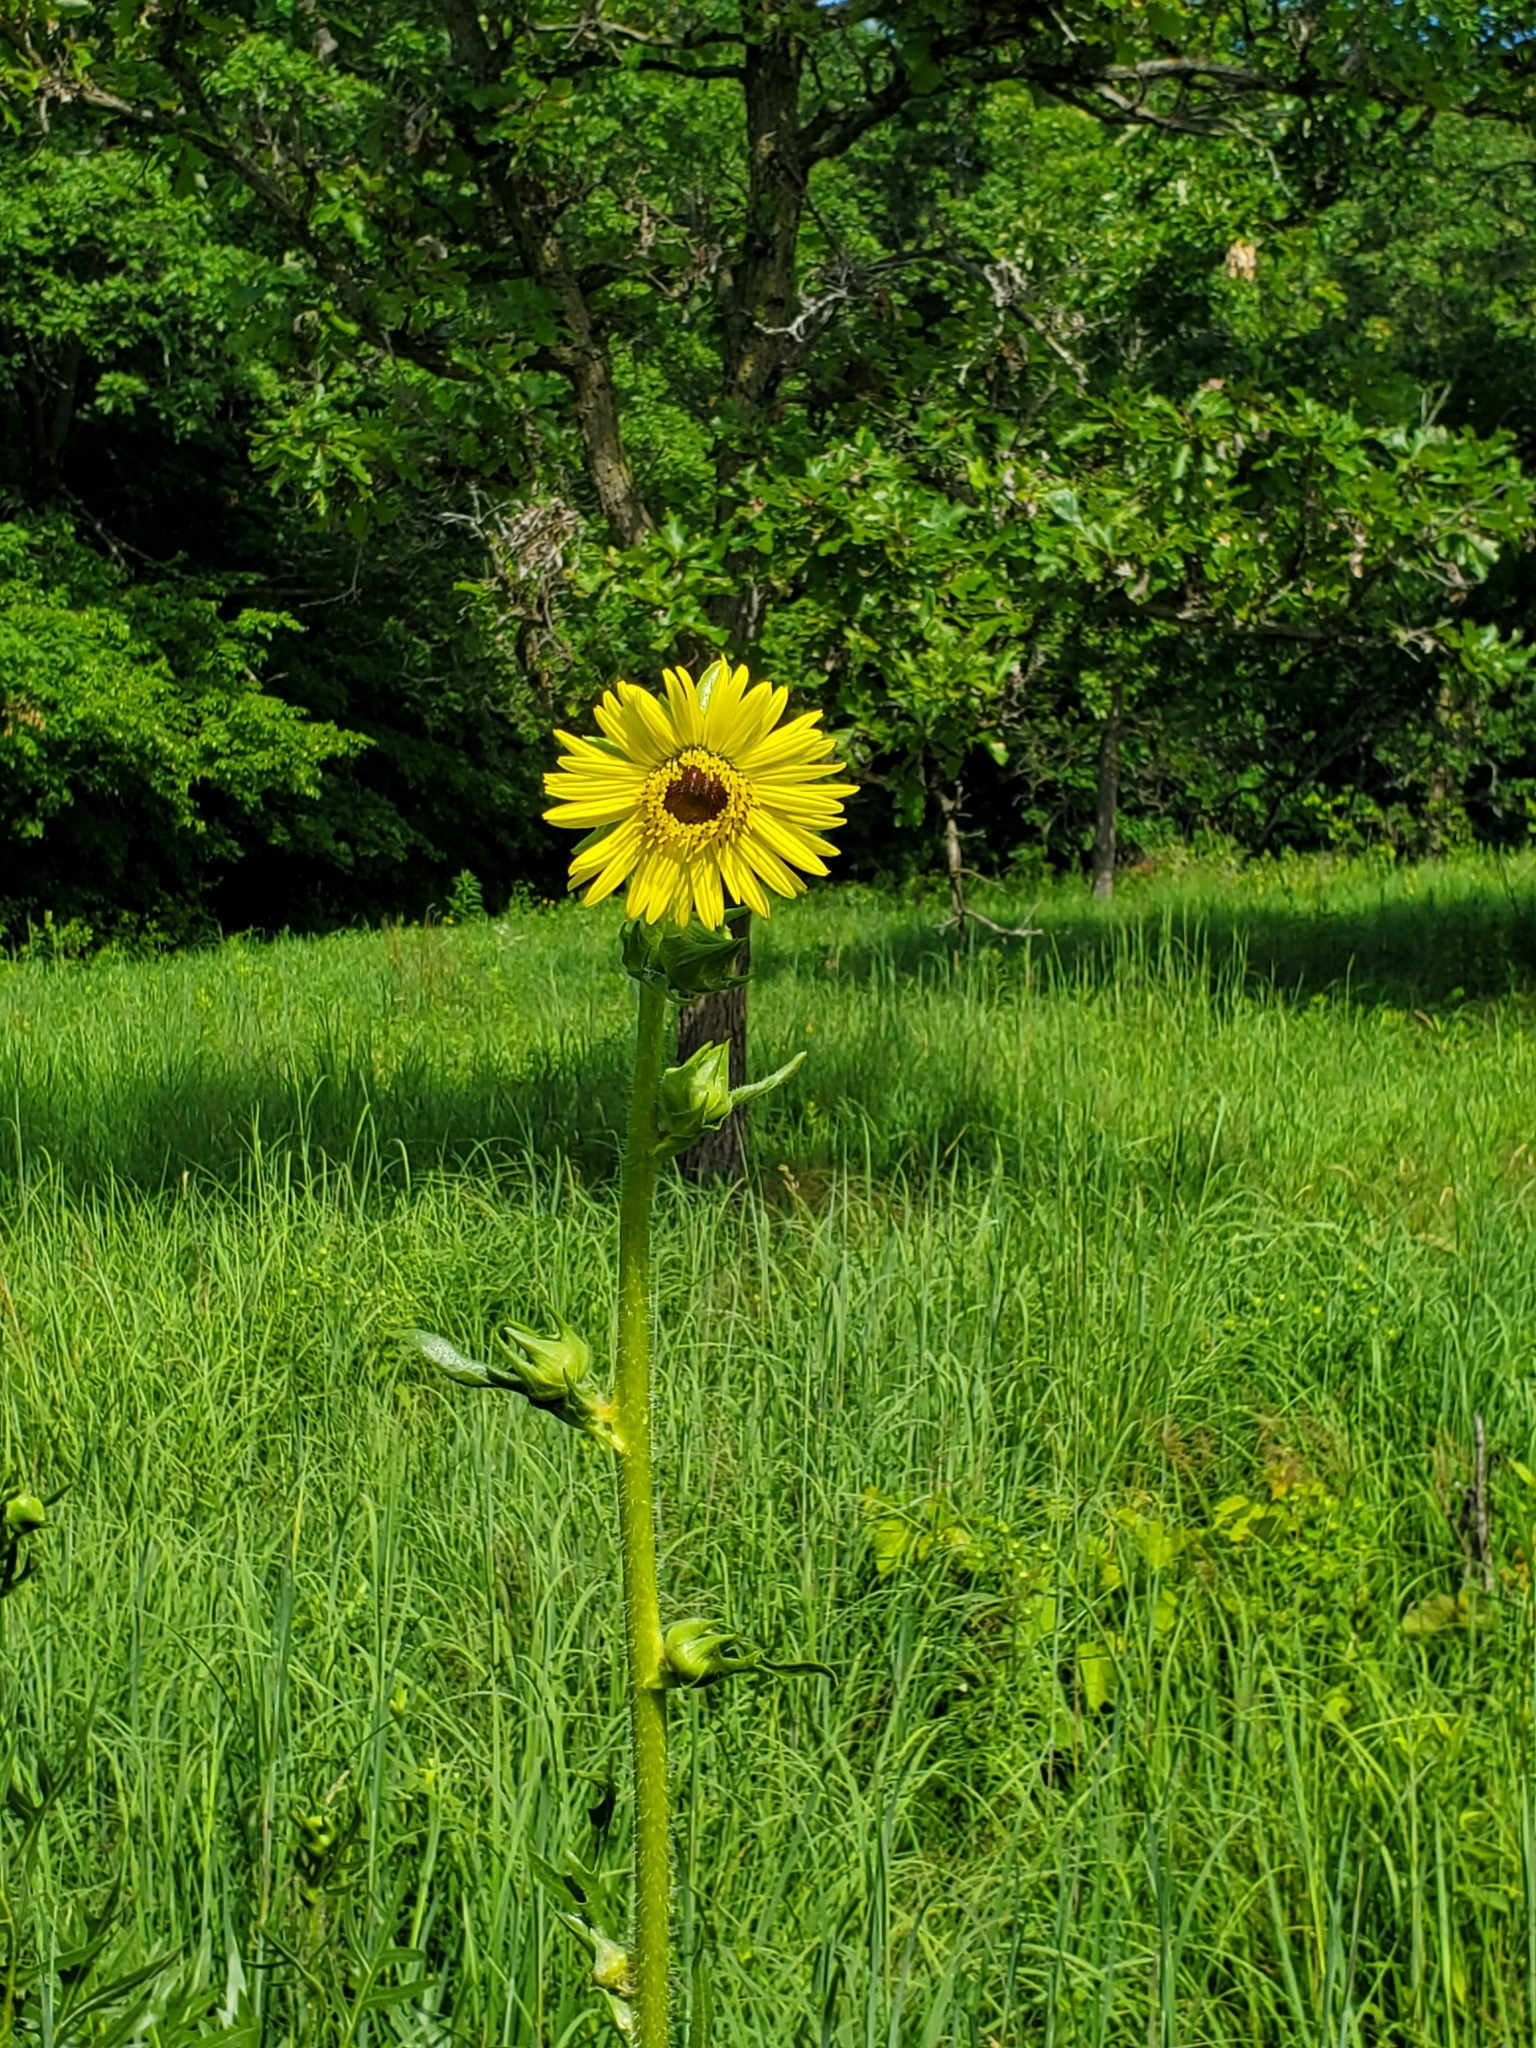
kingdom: Plantae
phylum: Tracheophyta
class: Magnoliopsida
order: Asterales
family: Asteraceae
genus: Silphium
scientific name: Silphium laciniatum
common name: Polarplant
